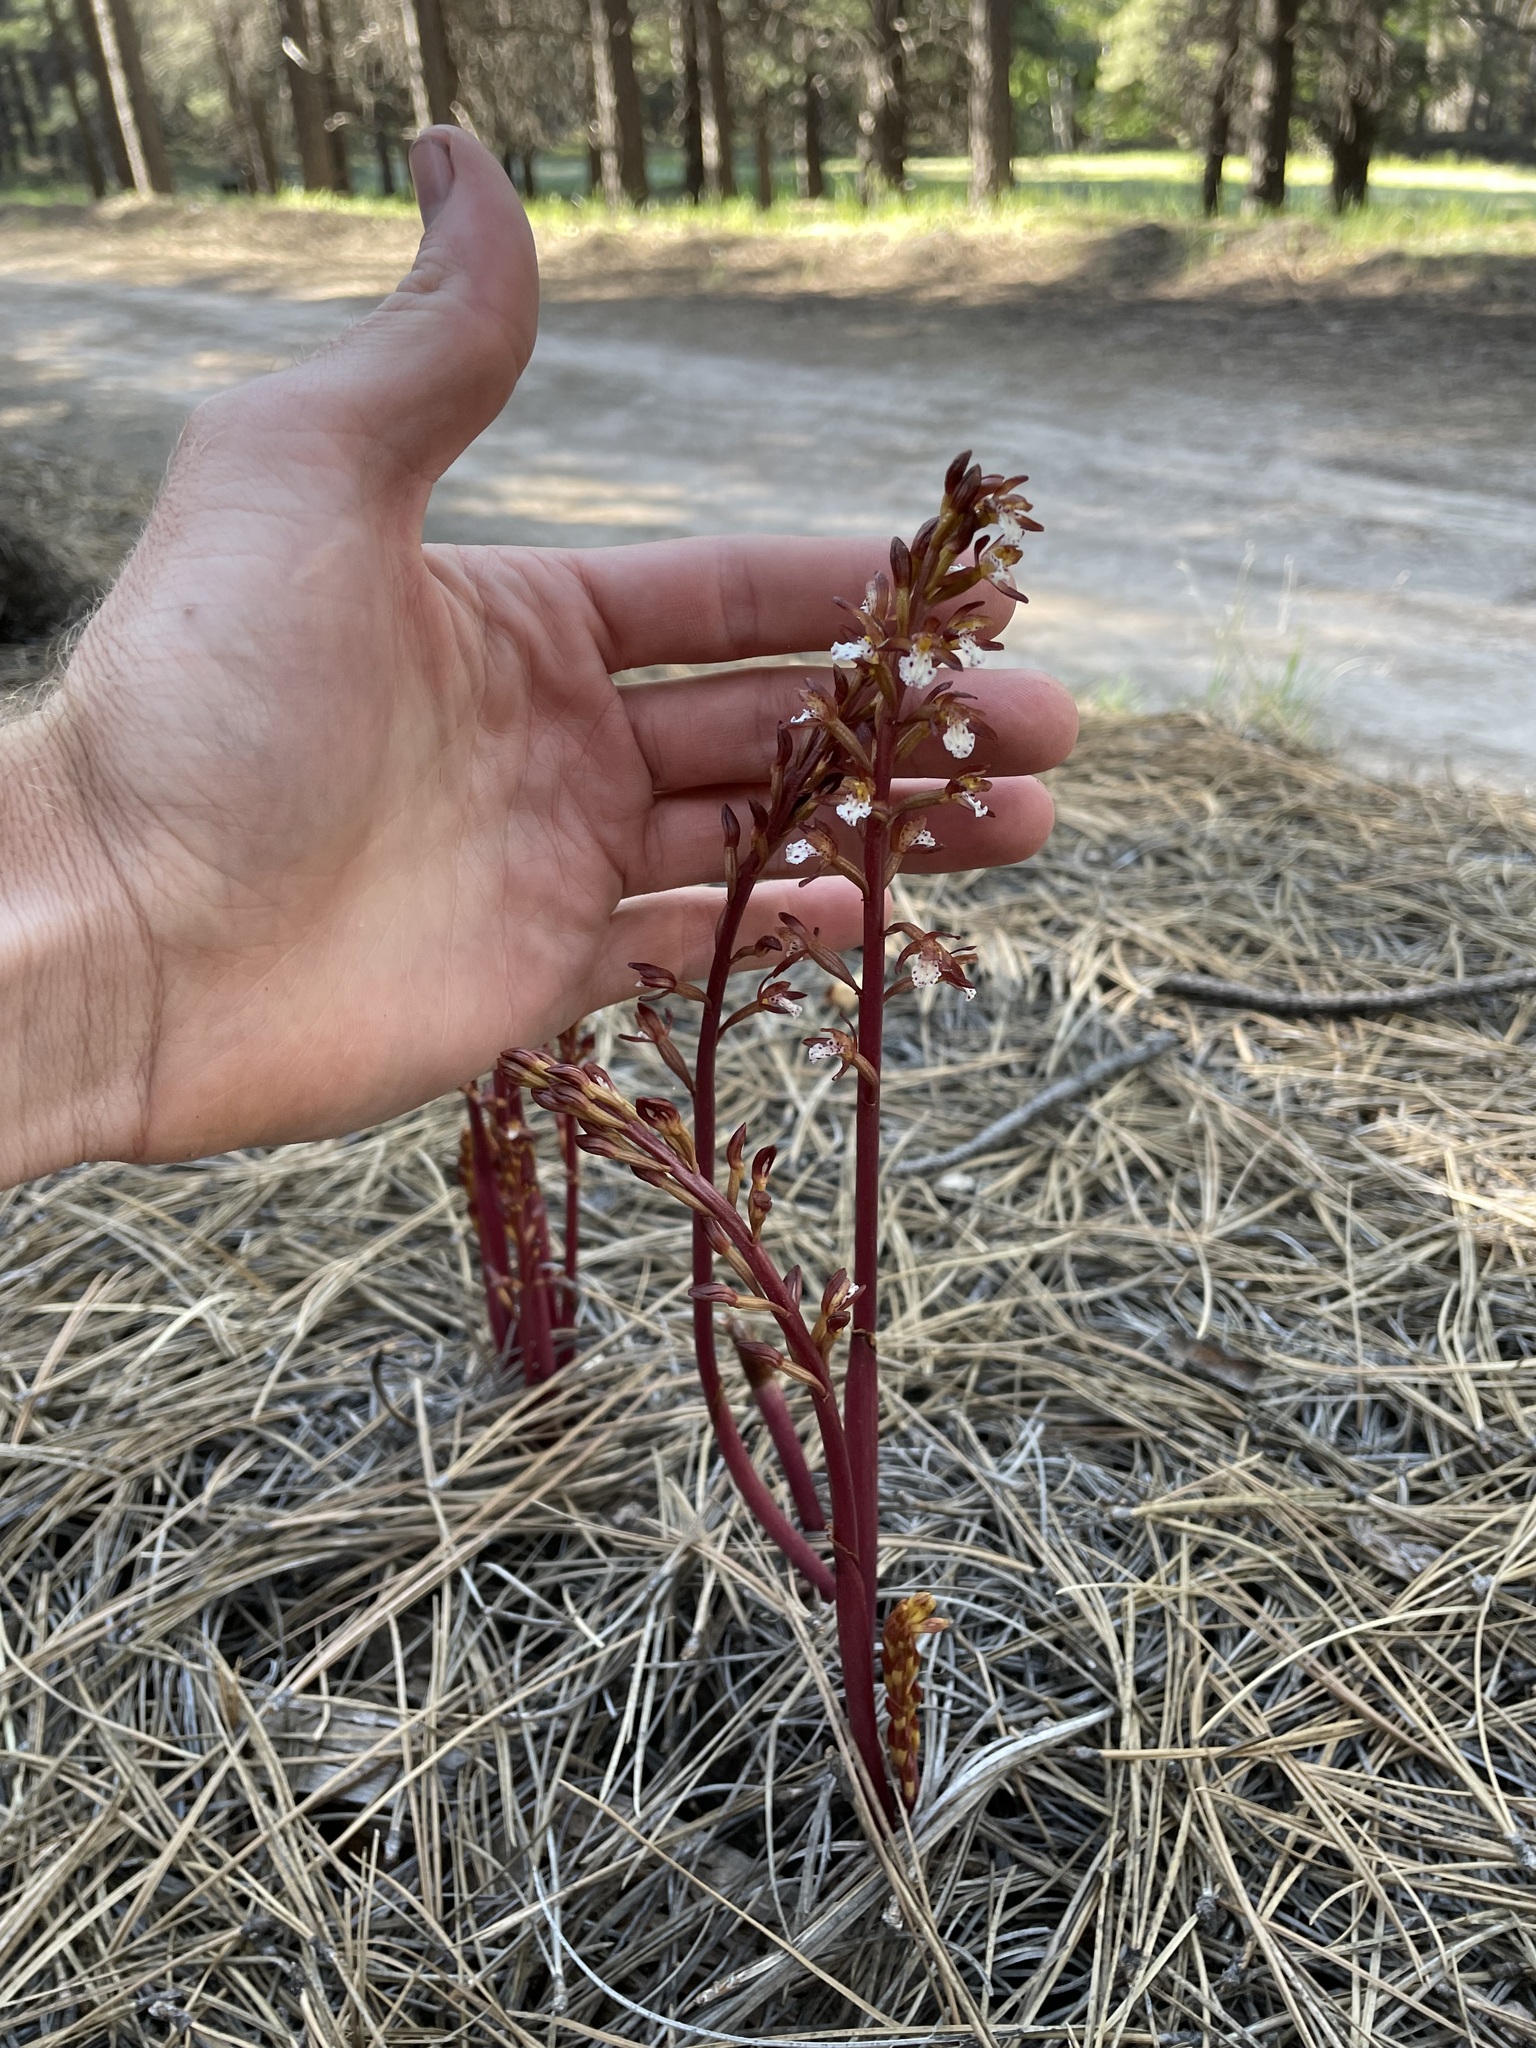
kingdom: Plantae
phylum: Tracheophyta
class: Liliopsida
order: Asparagales
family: Orchidaceae
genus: Corallorhiza
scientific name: Corallorhiza maculata
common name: Spotted coralroot
